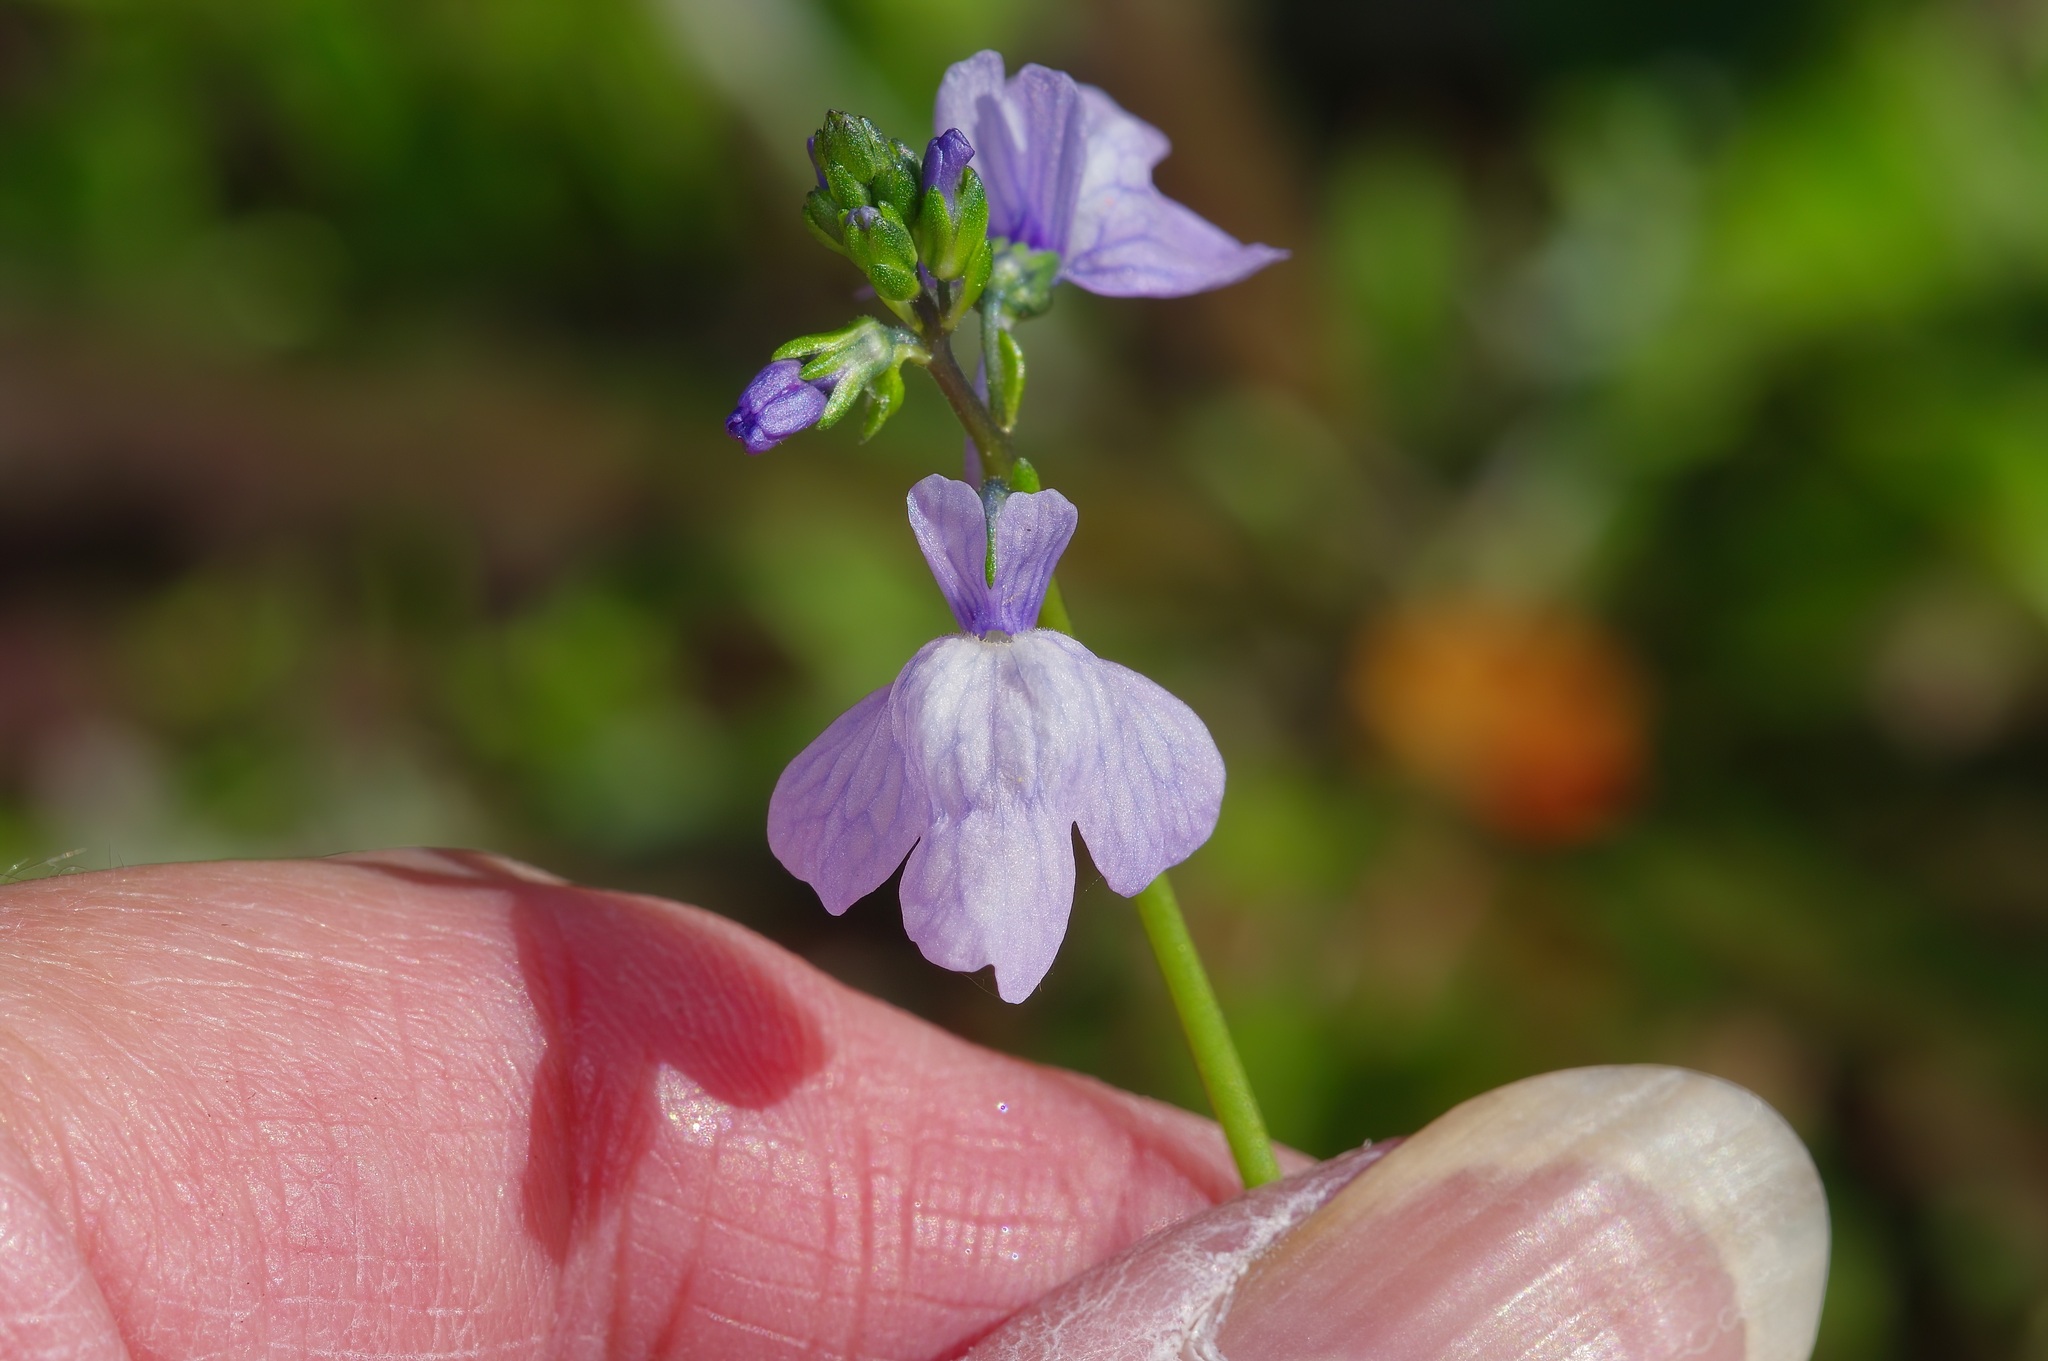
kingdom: Plantae
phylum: Tracheophyta
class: Magnoliopsida
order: Lamiales
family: Plantaginaceae
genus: Nuttallanthus
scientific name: Nuttallanthus texanus
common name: Texas toadflax
